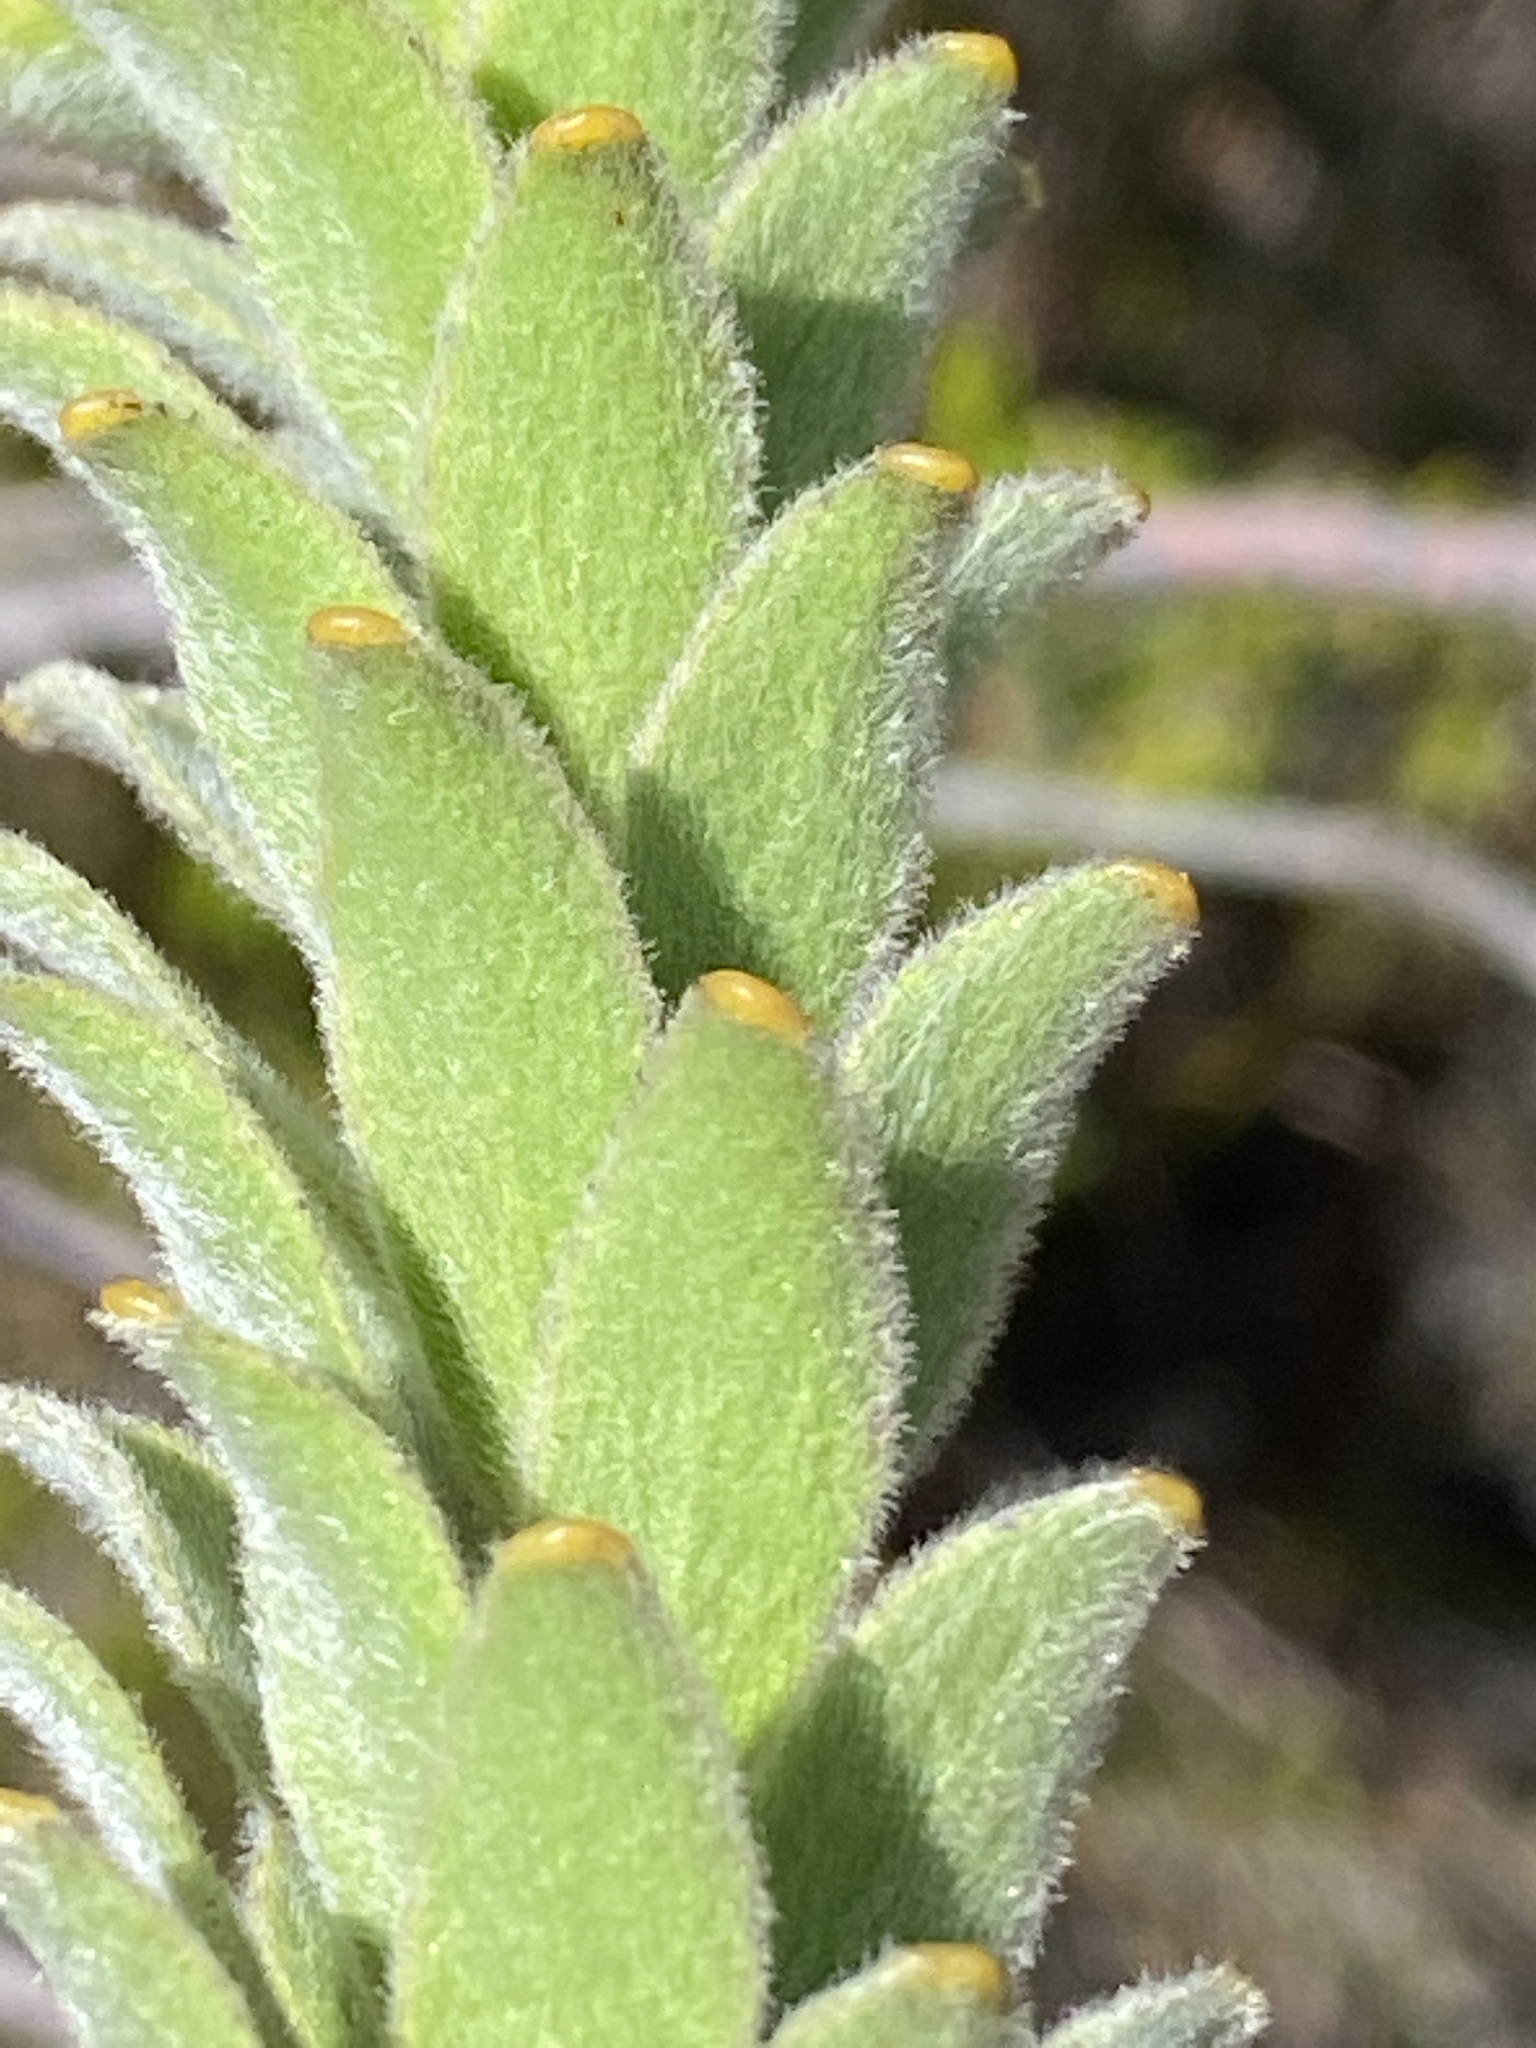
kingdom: Plantae
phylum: Tracheophyta
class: Magnoliopsida
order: Proteales
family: Proteaceae
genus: Leucospermum
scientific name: Leucospermum truncatulum
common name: Oval-leaf pincushion
